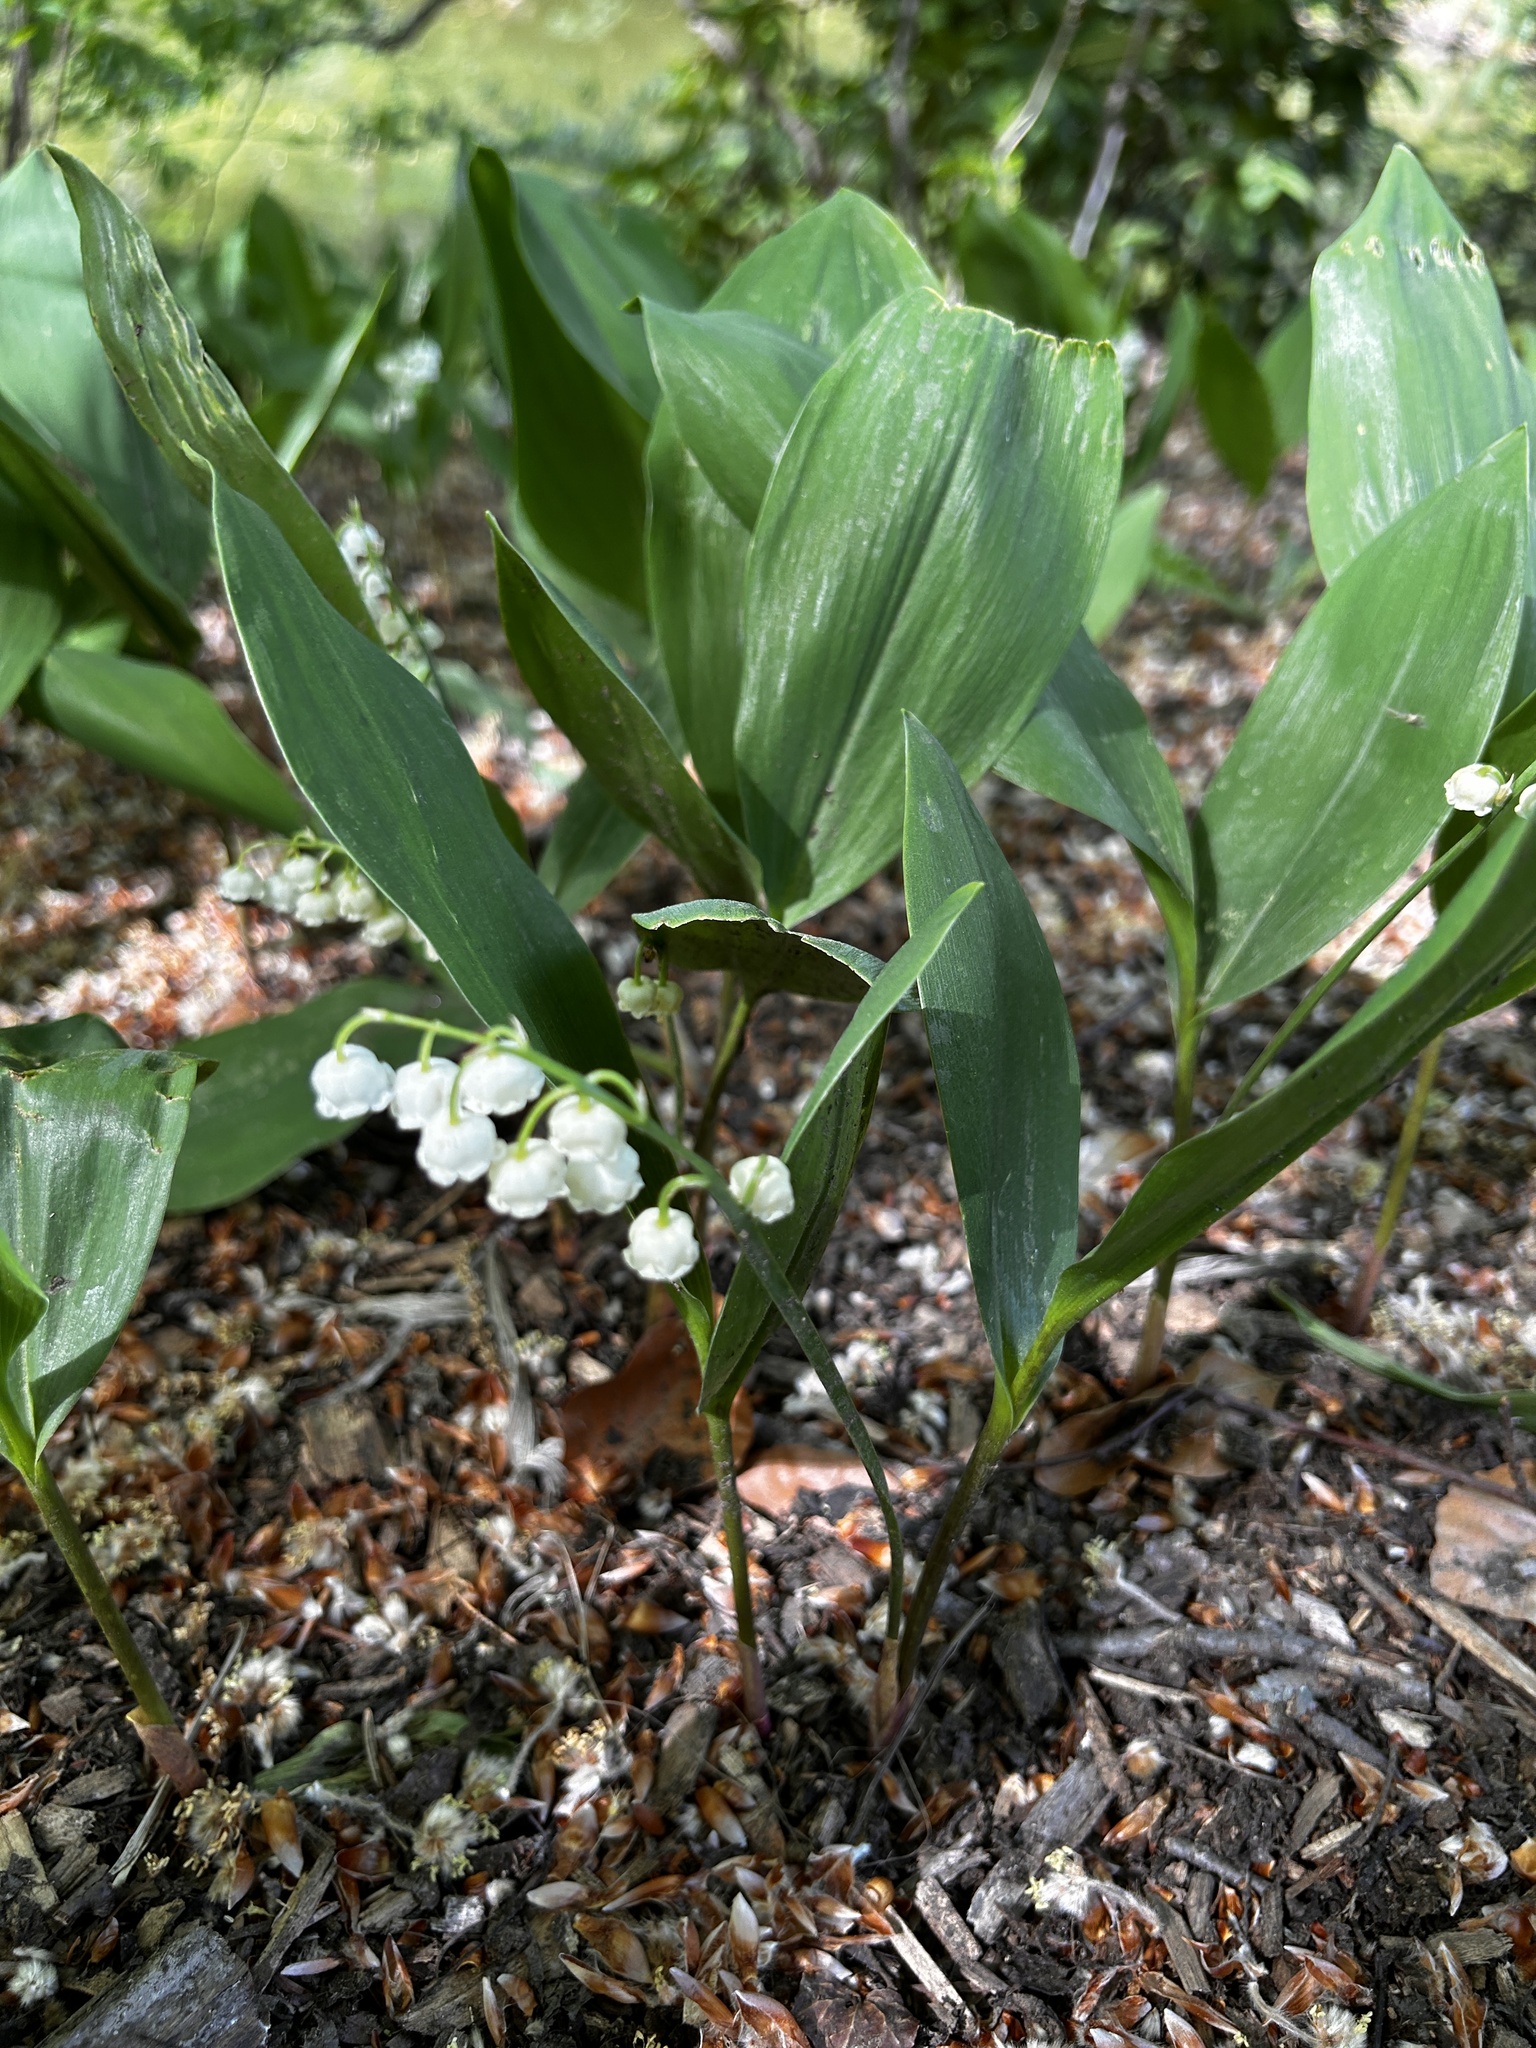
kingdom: Plantae
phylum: Tracheophyta
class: Liliopsida
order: Asparagales
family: Asparagaceae
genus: Convallaria
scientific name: Convallaria majalis
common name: Lily-of-the-valley
